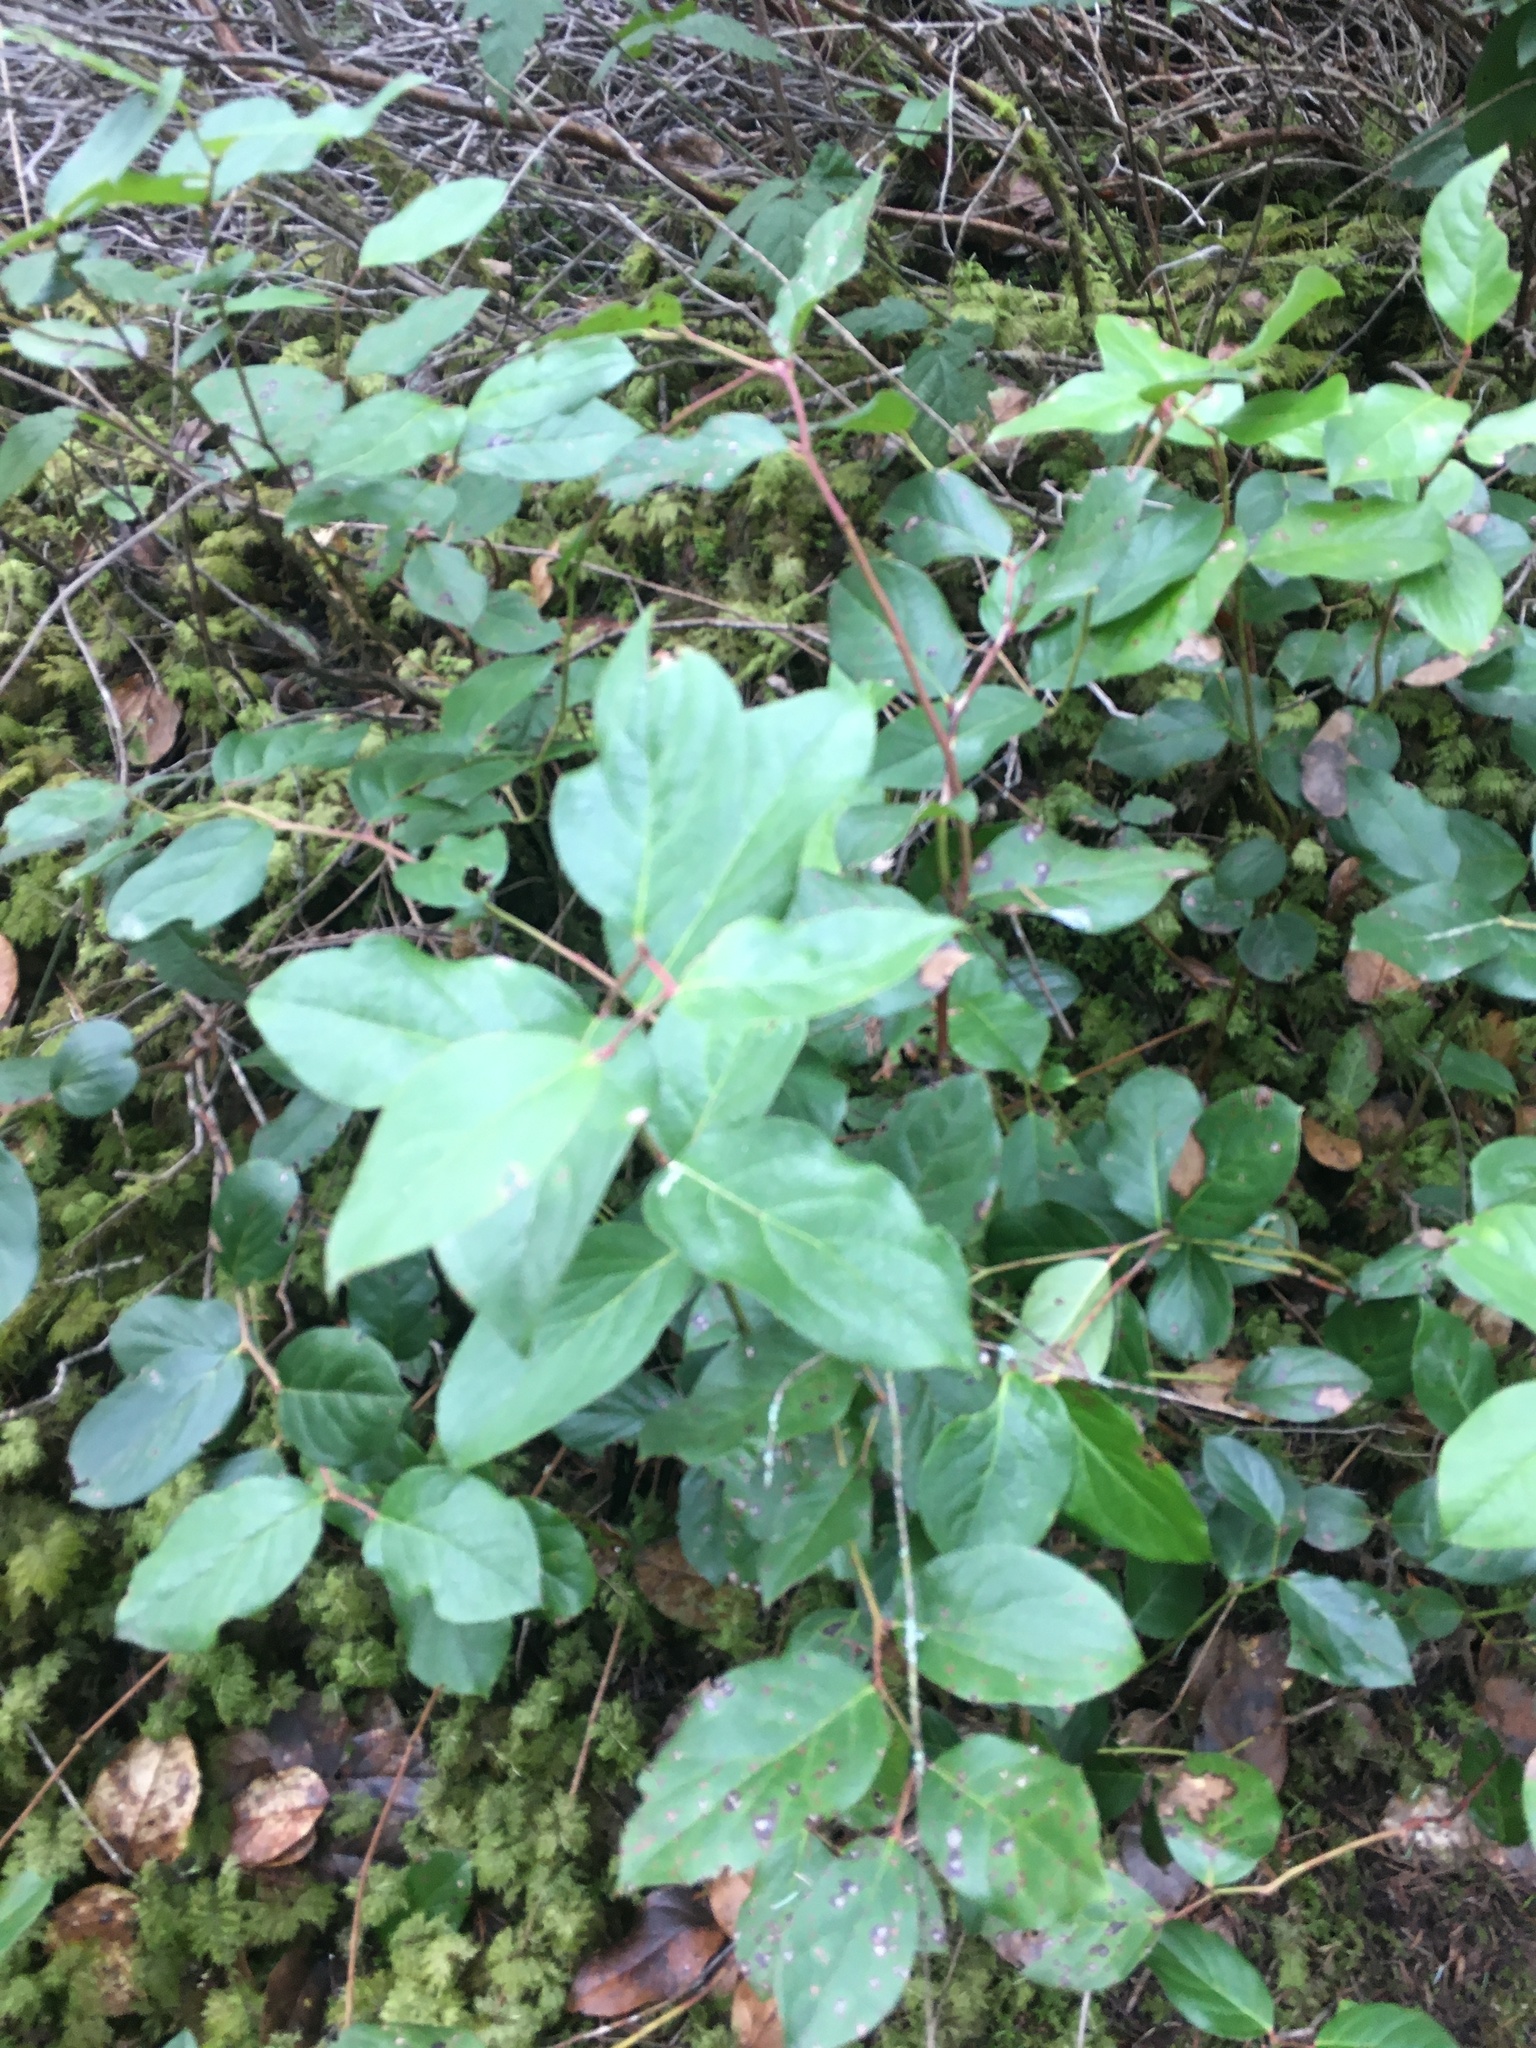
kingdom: Plantae
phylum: Tracheophyta
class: Magnoliopsida
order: Ericales
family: Ericaceae
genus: Gaultheria
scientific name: Gaultheria shallon
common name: Shallon
